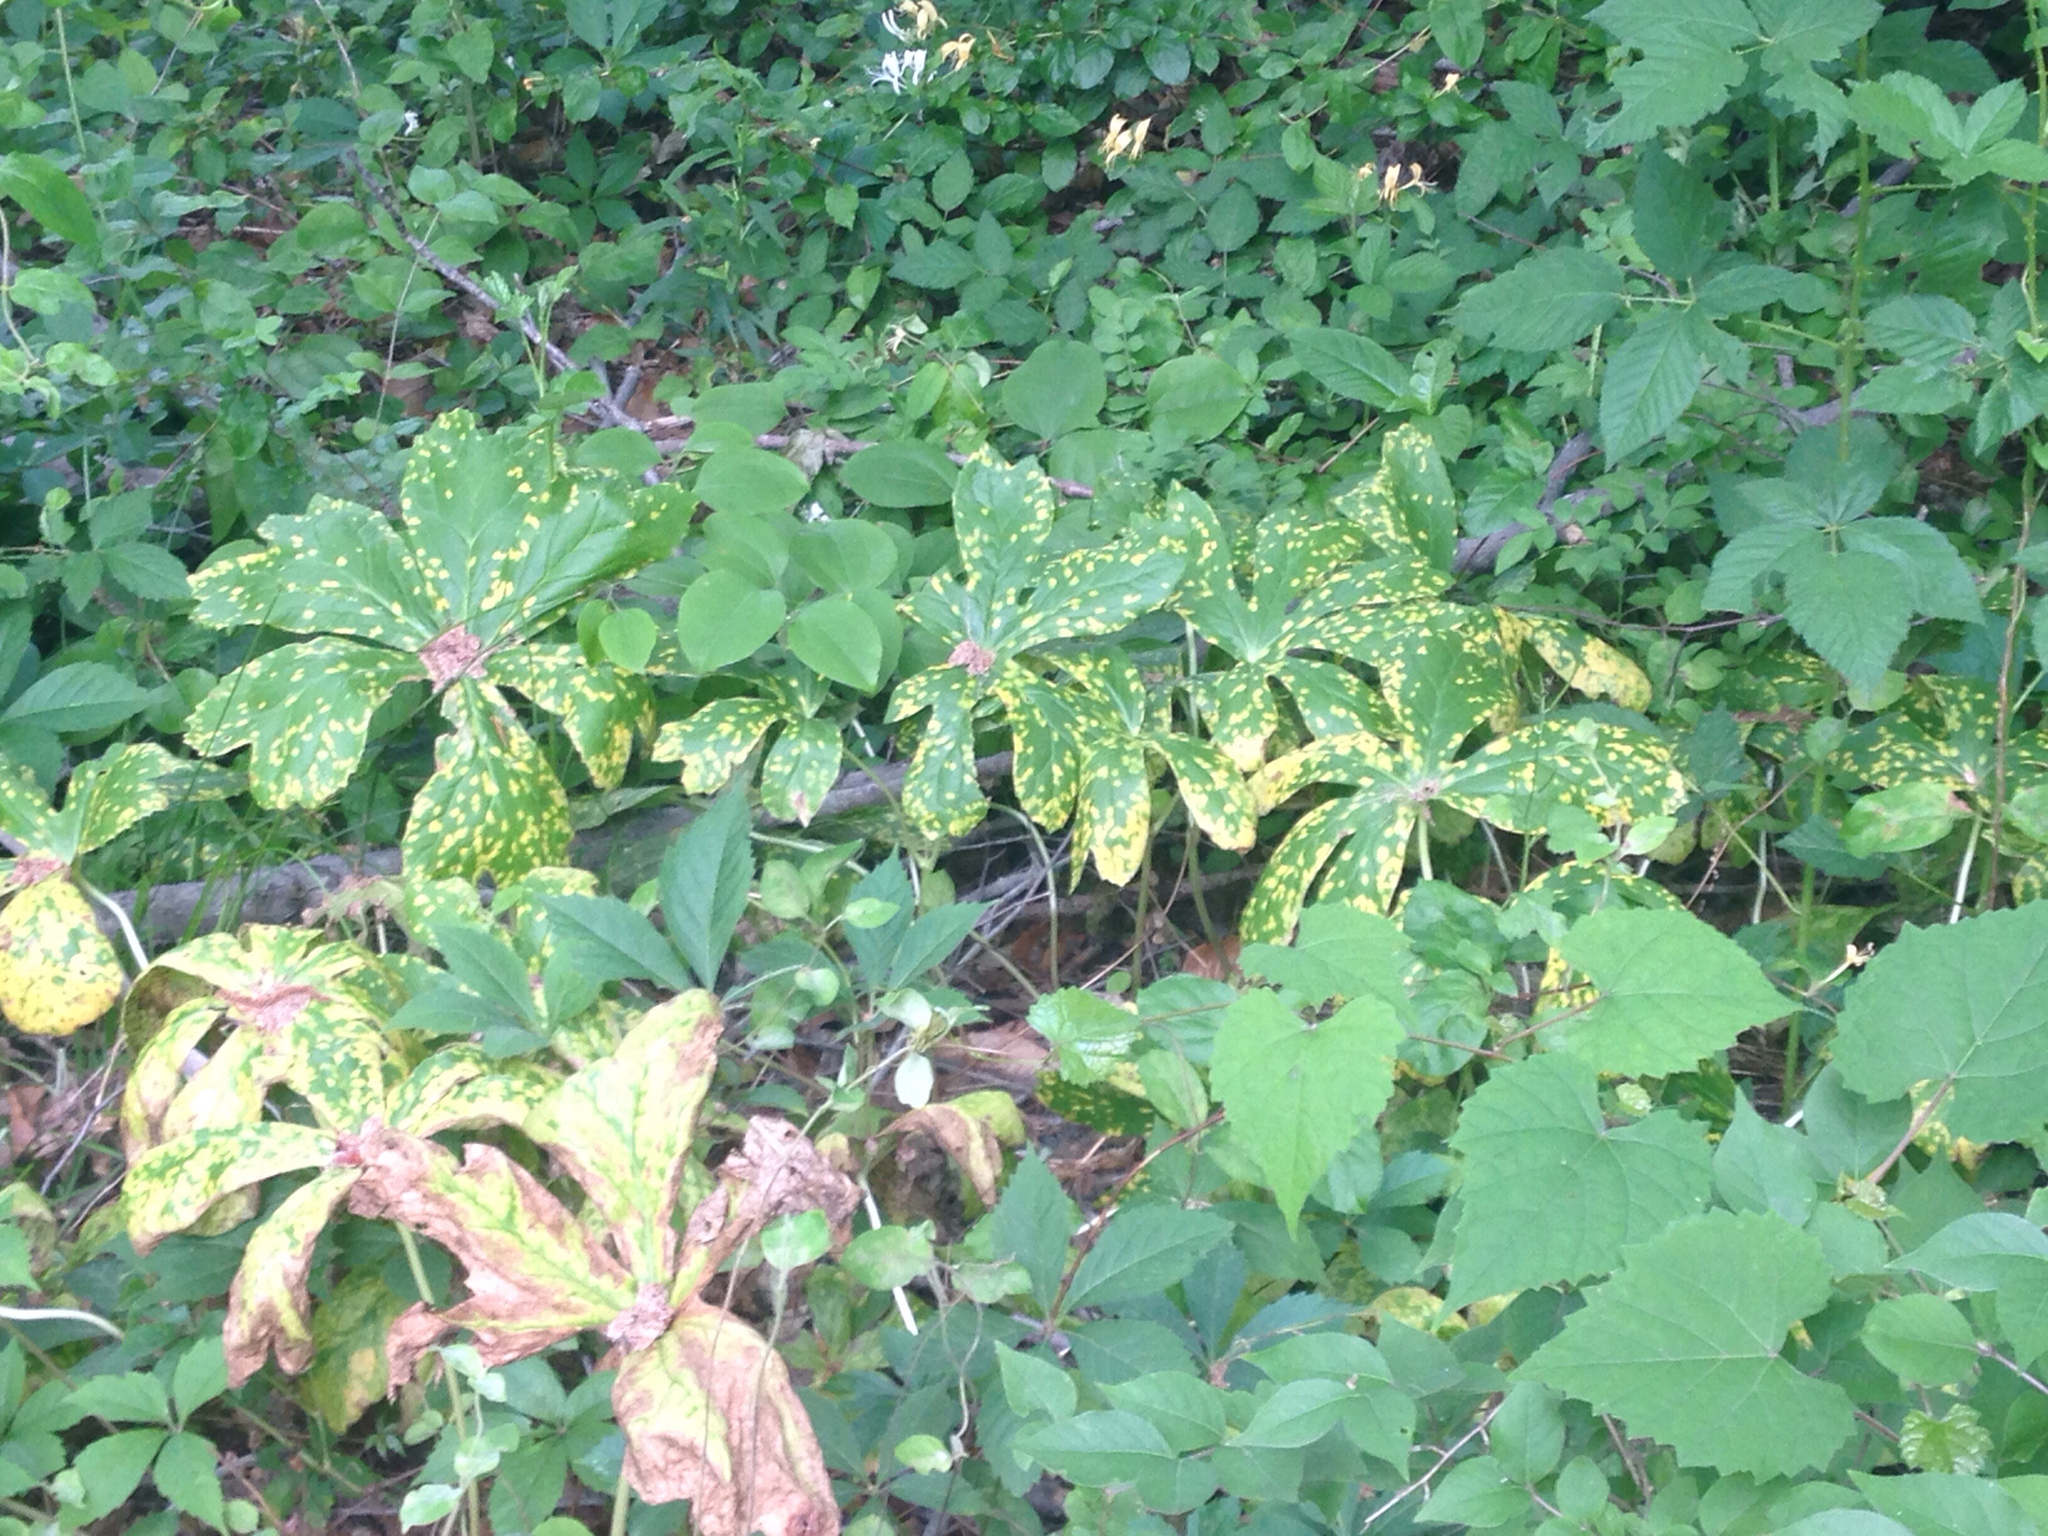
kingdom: Plantae
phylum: Tracheophyta
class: Magnoliopsida
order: Ranunculales
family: Berberidaceae
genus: Podophyllum
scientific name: Podophyllum peltatum
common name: Wild mandrake
